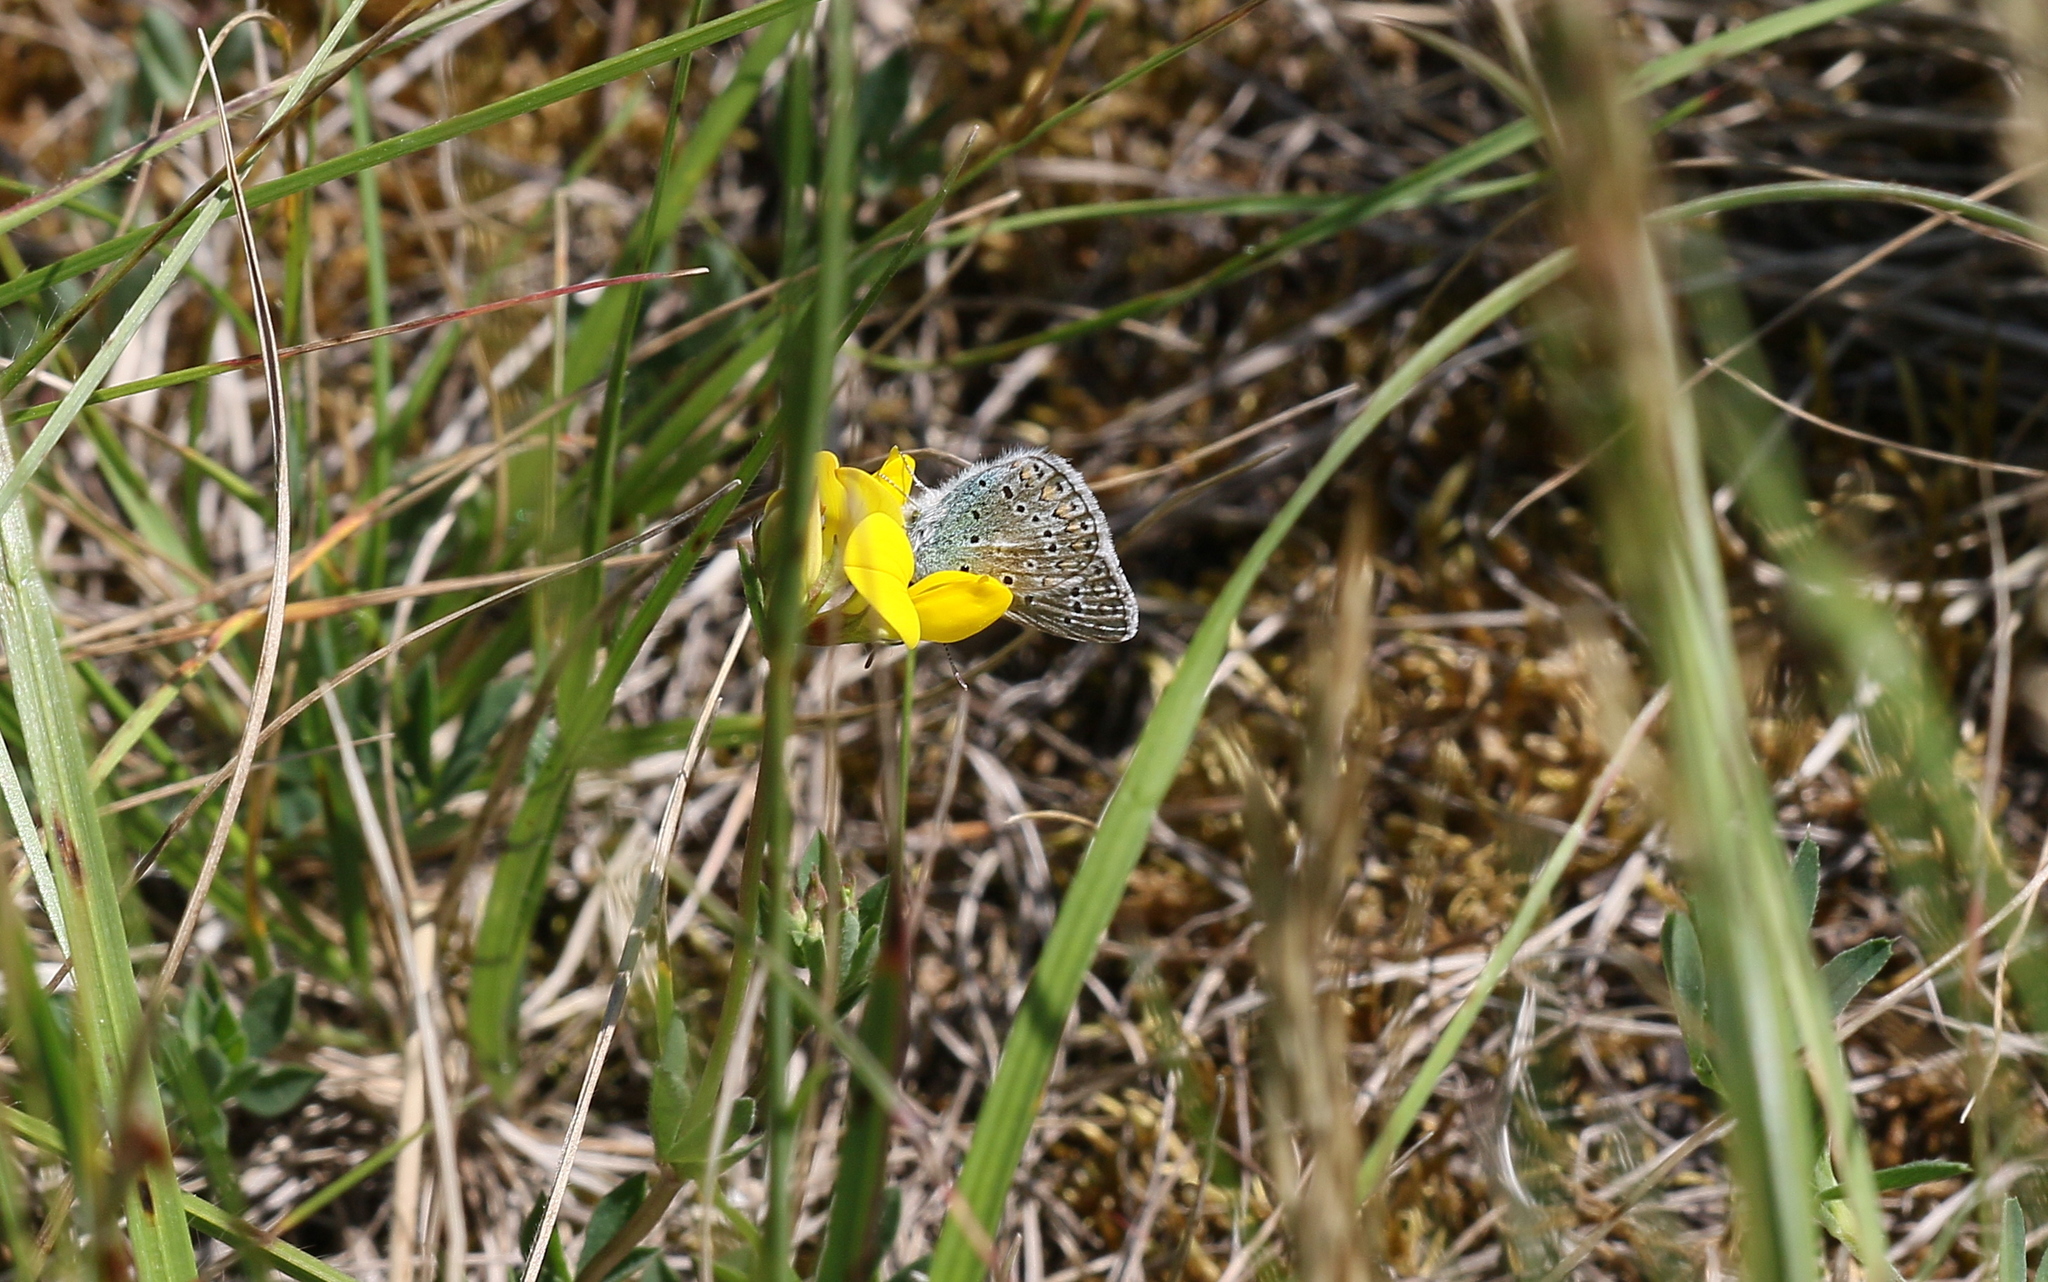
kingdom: Animalia
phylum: Arthropoda
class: Insecta
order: Lepidoptera
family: Lycaenidae
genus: Polyommatus
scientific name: Polyommatus icarus
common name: Common blue
